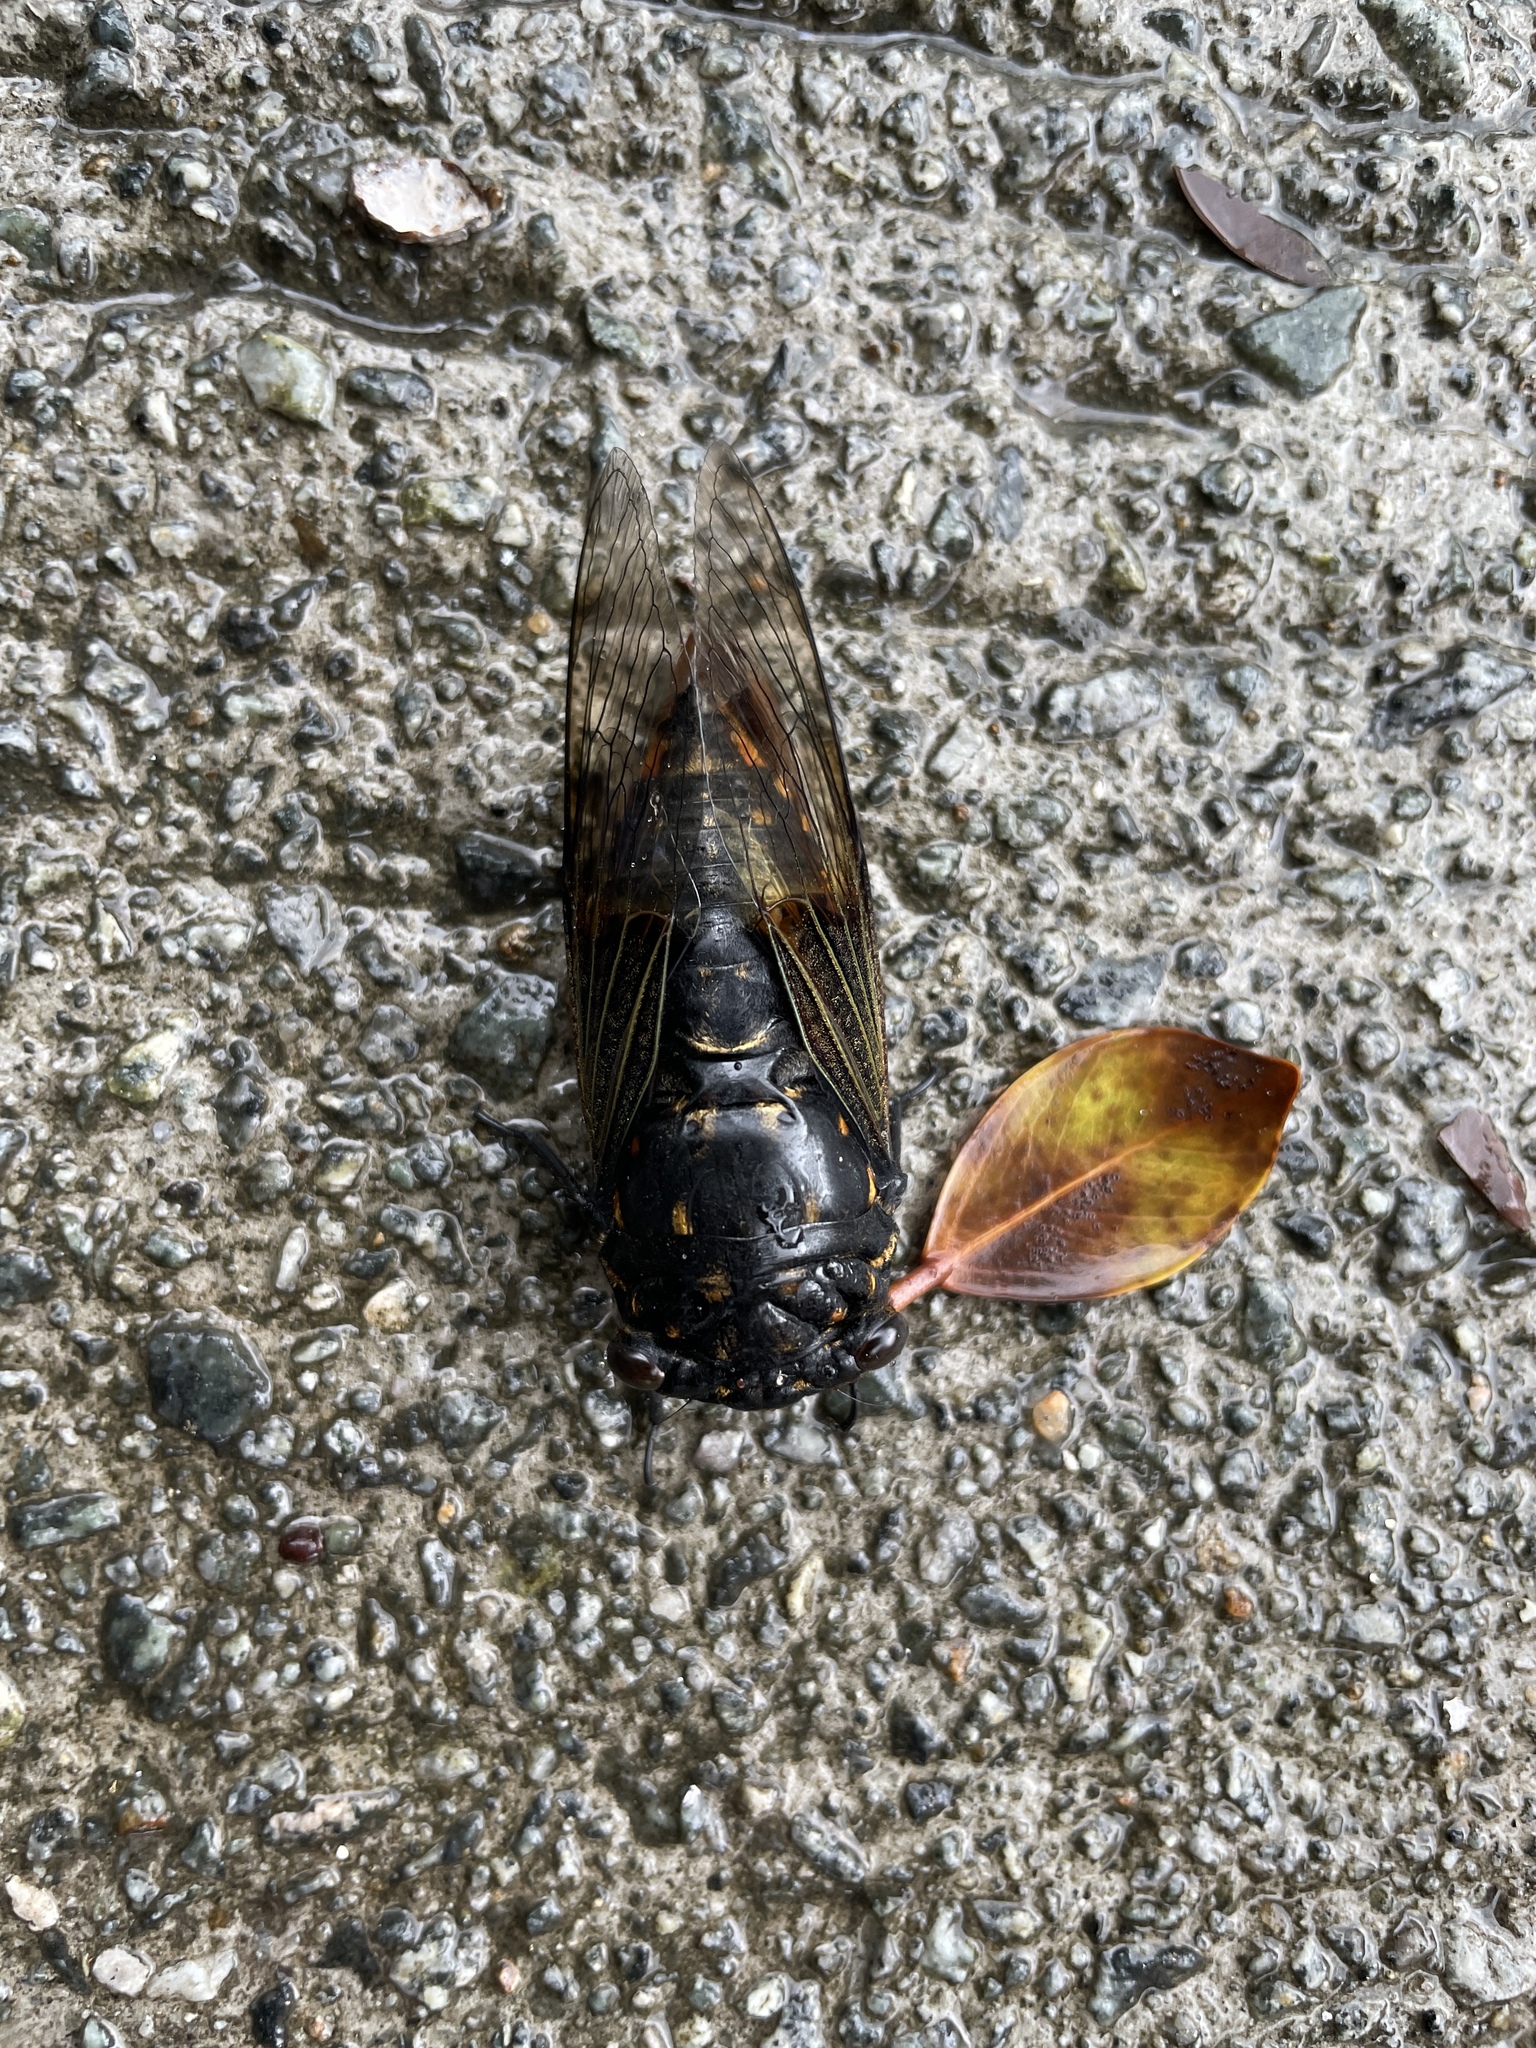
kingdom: Animalia
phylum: Arthropoda
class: Insecta
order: Hemiptera
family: Cicadidae
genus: Cryptotympana
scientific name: Cryptotympana mandarina
